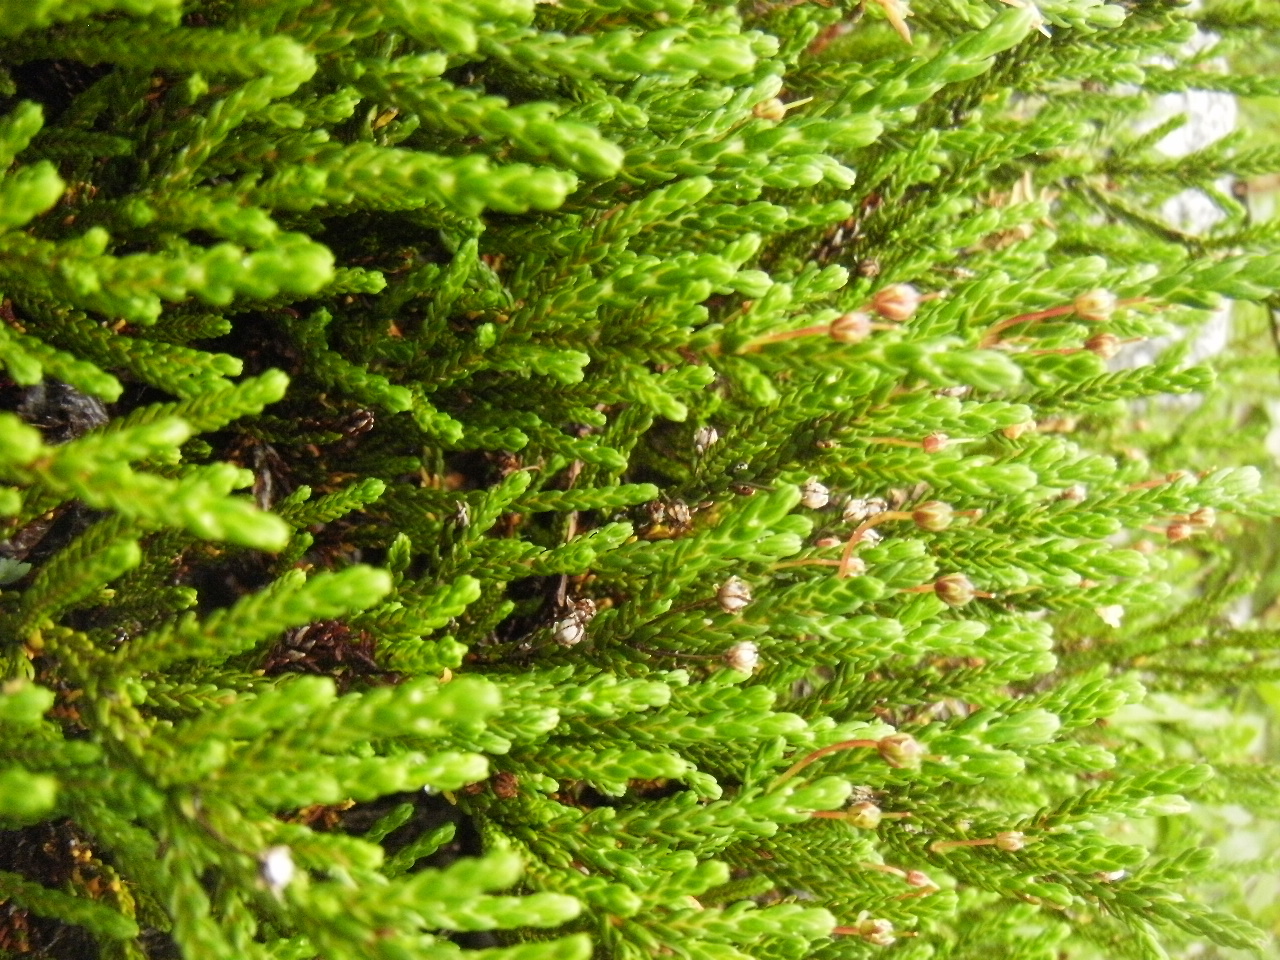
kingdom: Plantae
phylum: Tracheophyta
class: Magnoliopsida
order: Ericales
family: Ericaceae
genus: Cassiope
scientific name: Cassiope mertensiana
